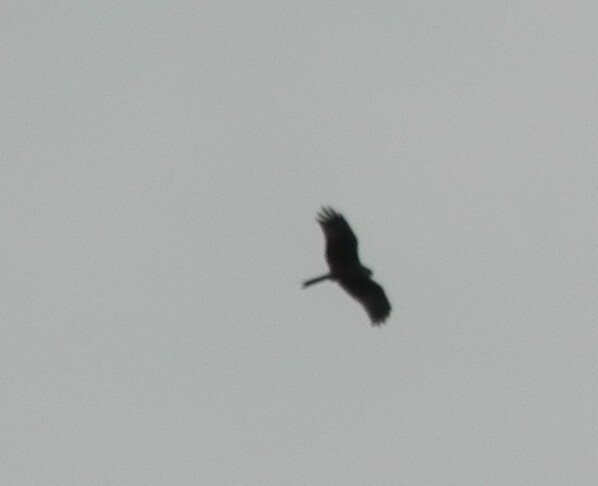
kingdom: Animalia
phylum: Chordata
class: Aves
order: Accipitriformes
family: Accipitridae
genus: Milvus
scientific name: Milvus milvus
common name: Red kite
